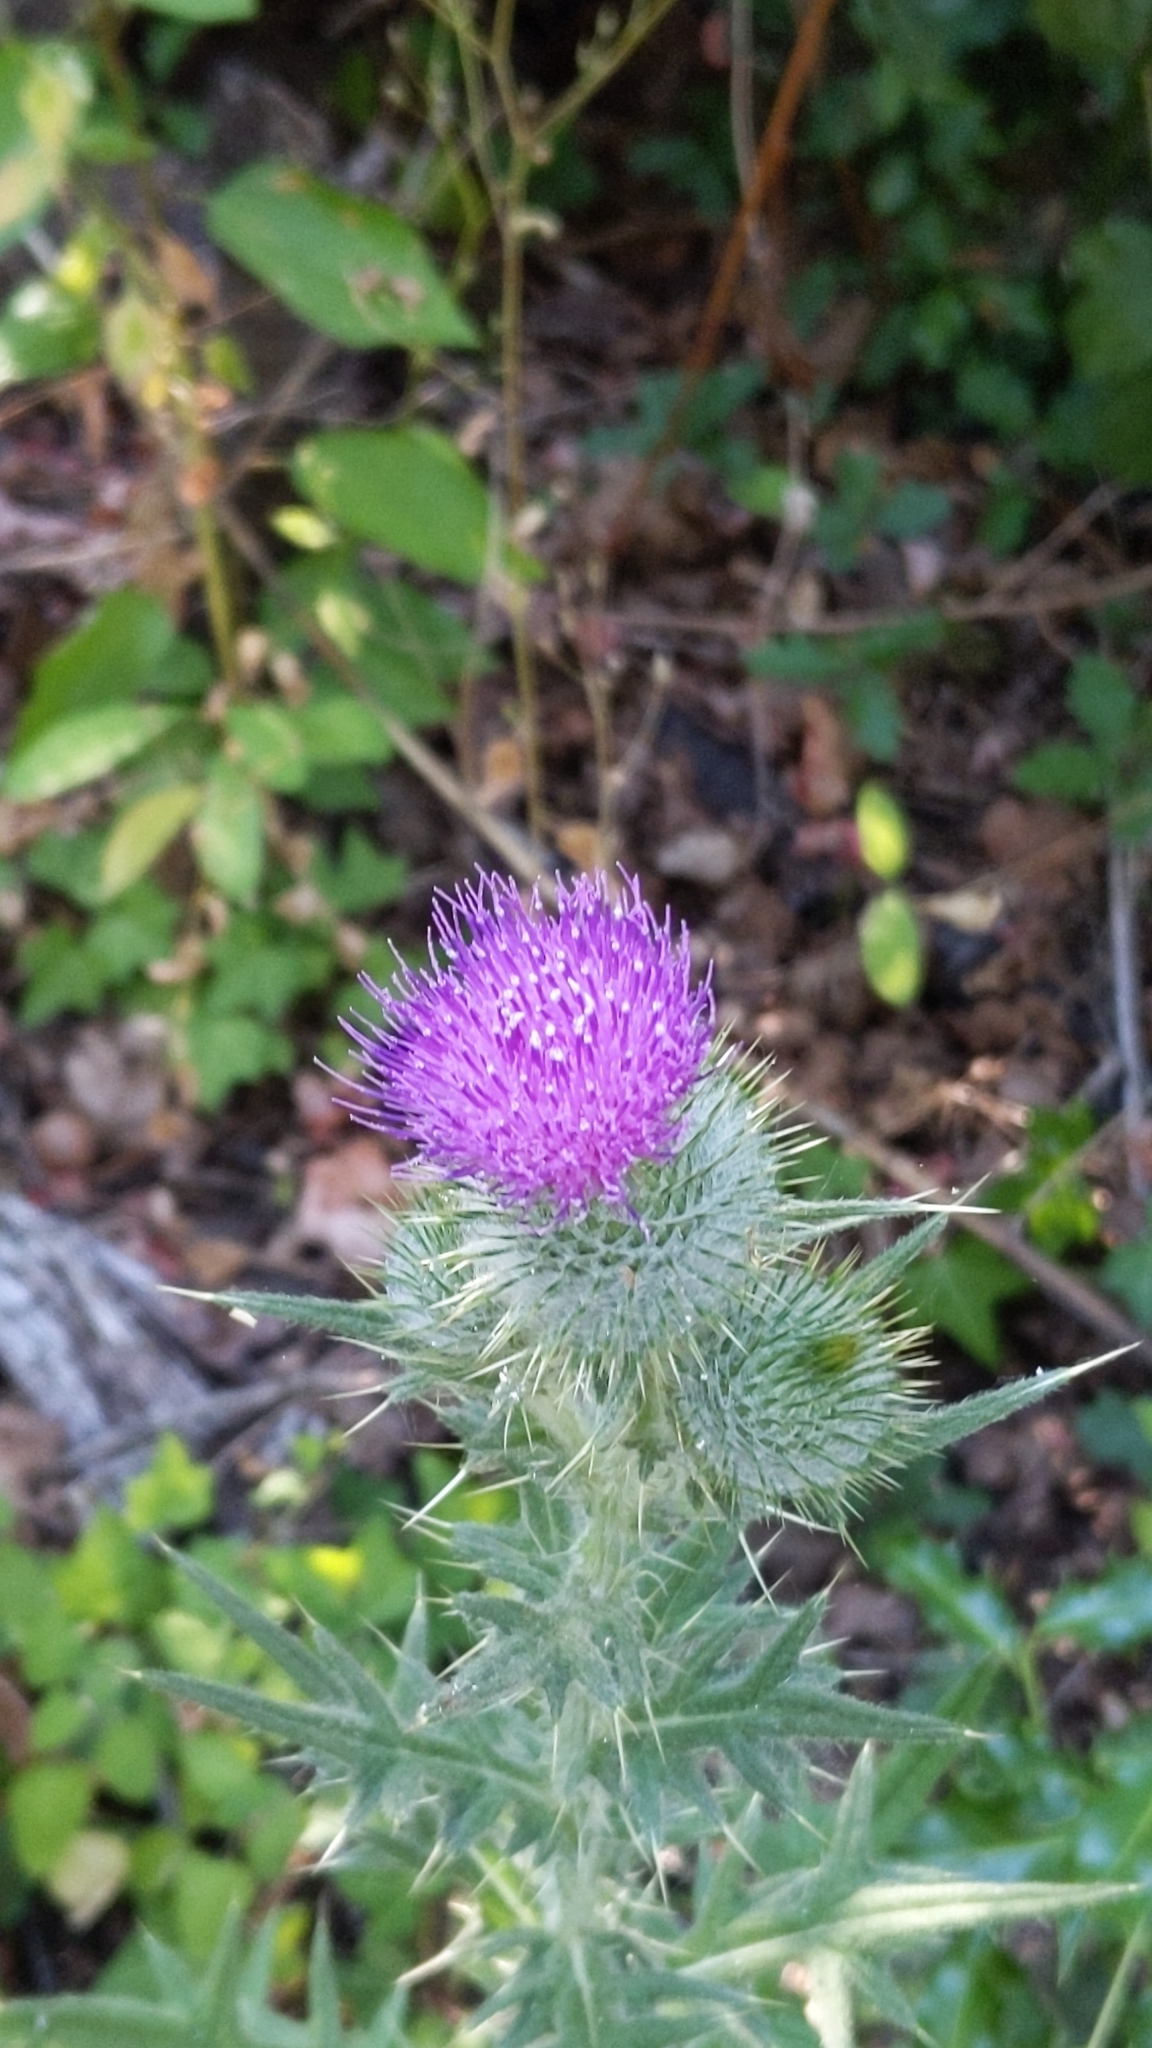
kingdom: Plantae
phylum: Tracheophyta
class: Magnoliopsida
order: Asterales
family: Asteraceae
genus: Cirsium
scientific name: Cirsium vulgare
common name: Bull thistle
